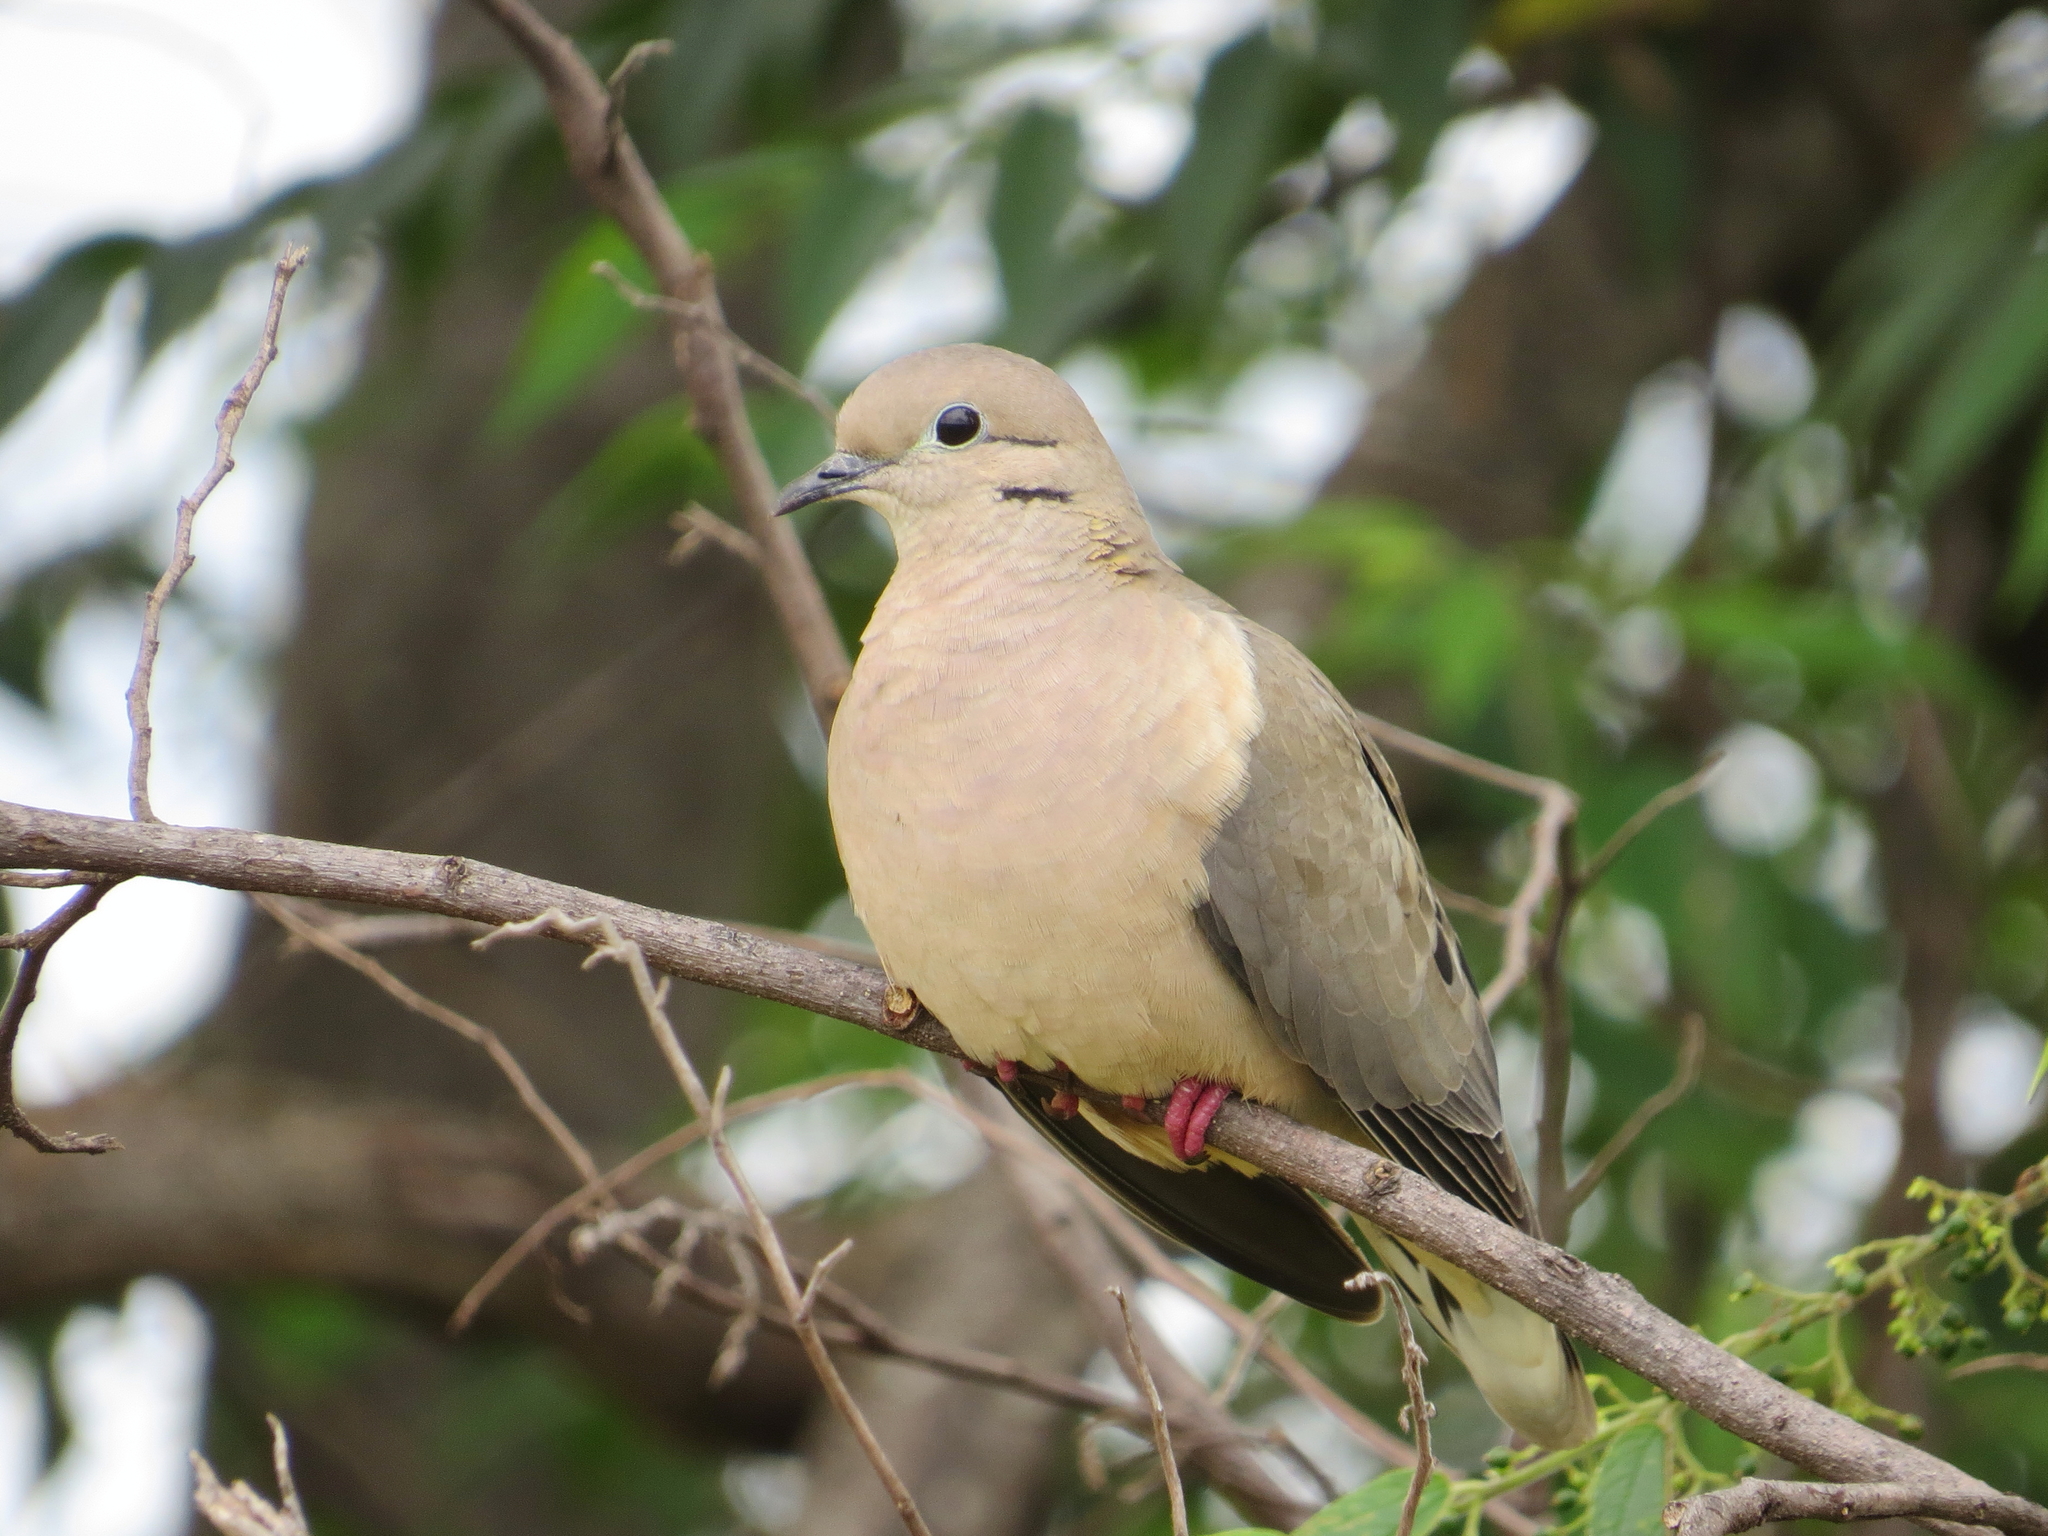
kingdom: Animalia
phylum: Chordata
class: Aves
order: Columbiformes
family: Columbidae
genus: Zenaida
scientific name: Zenaida auriculata
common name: Eared dove
